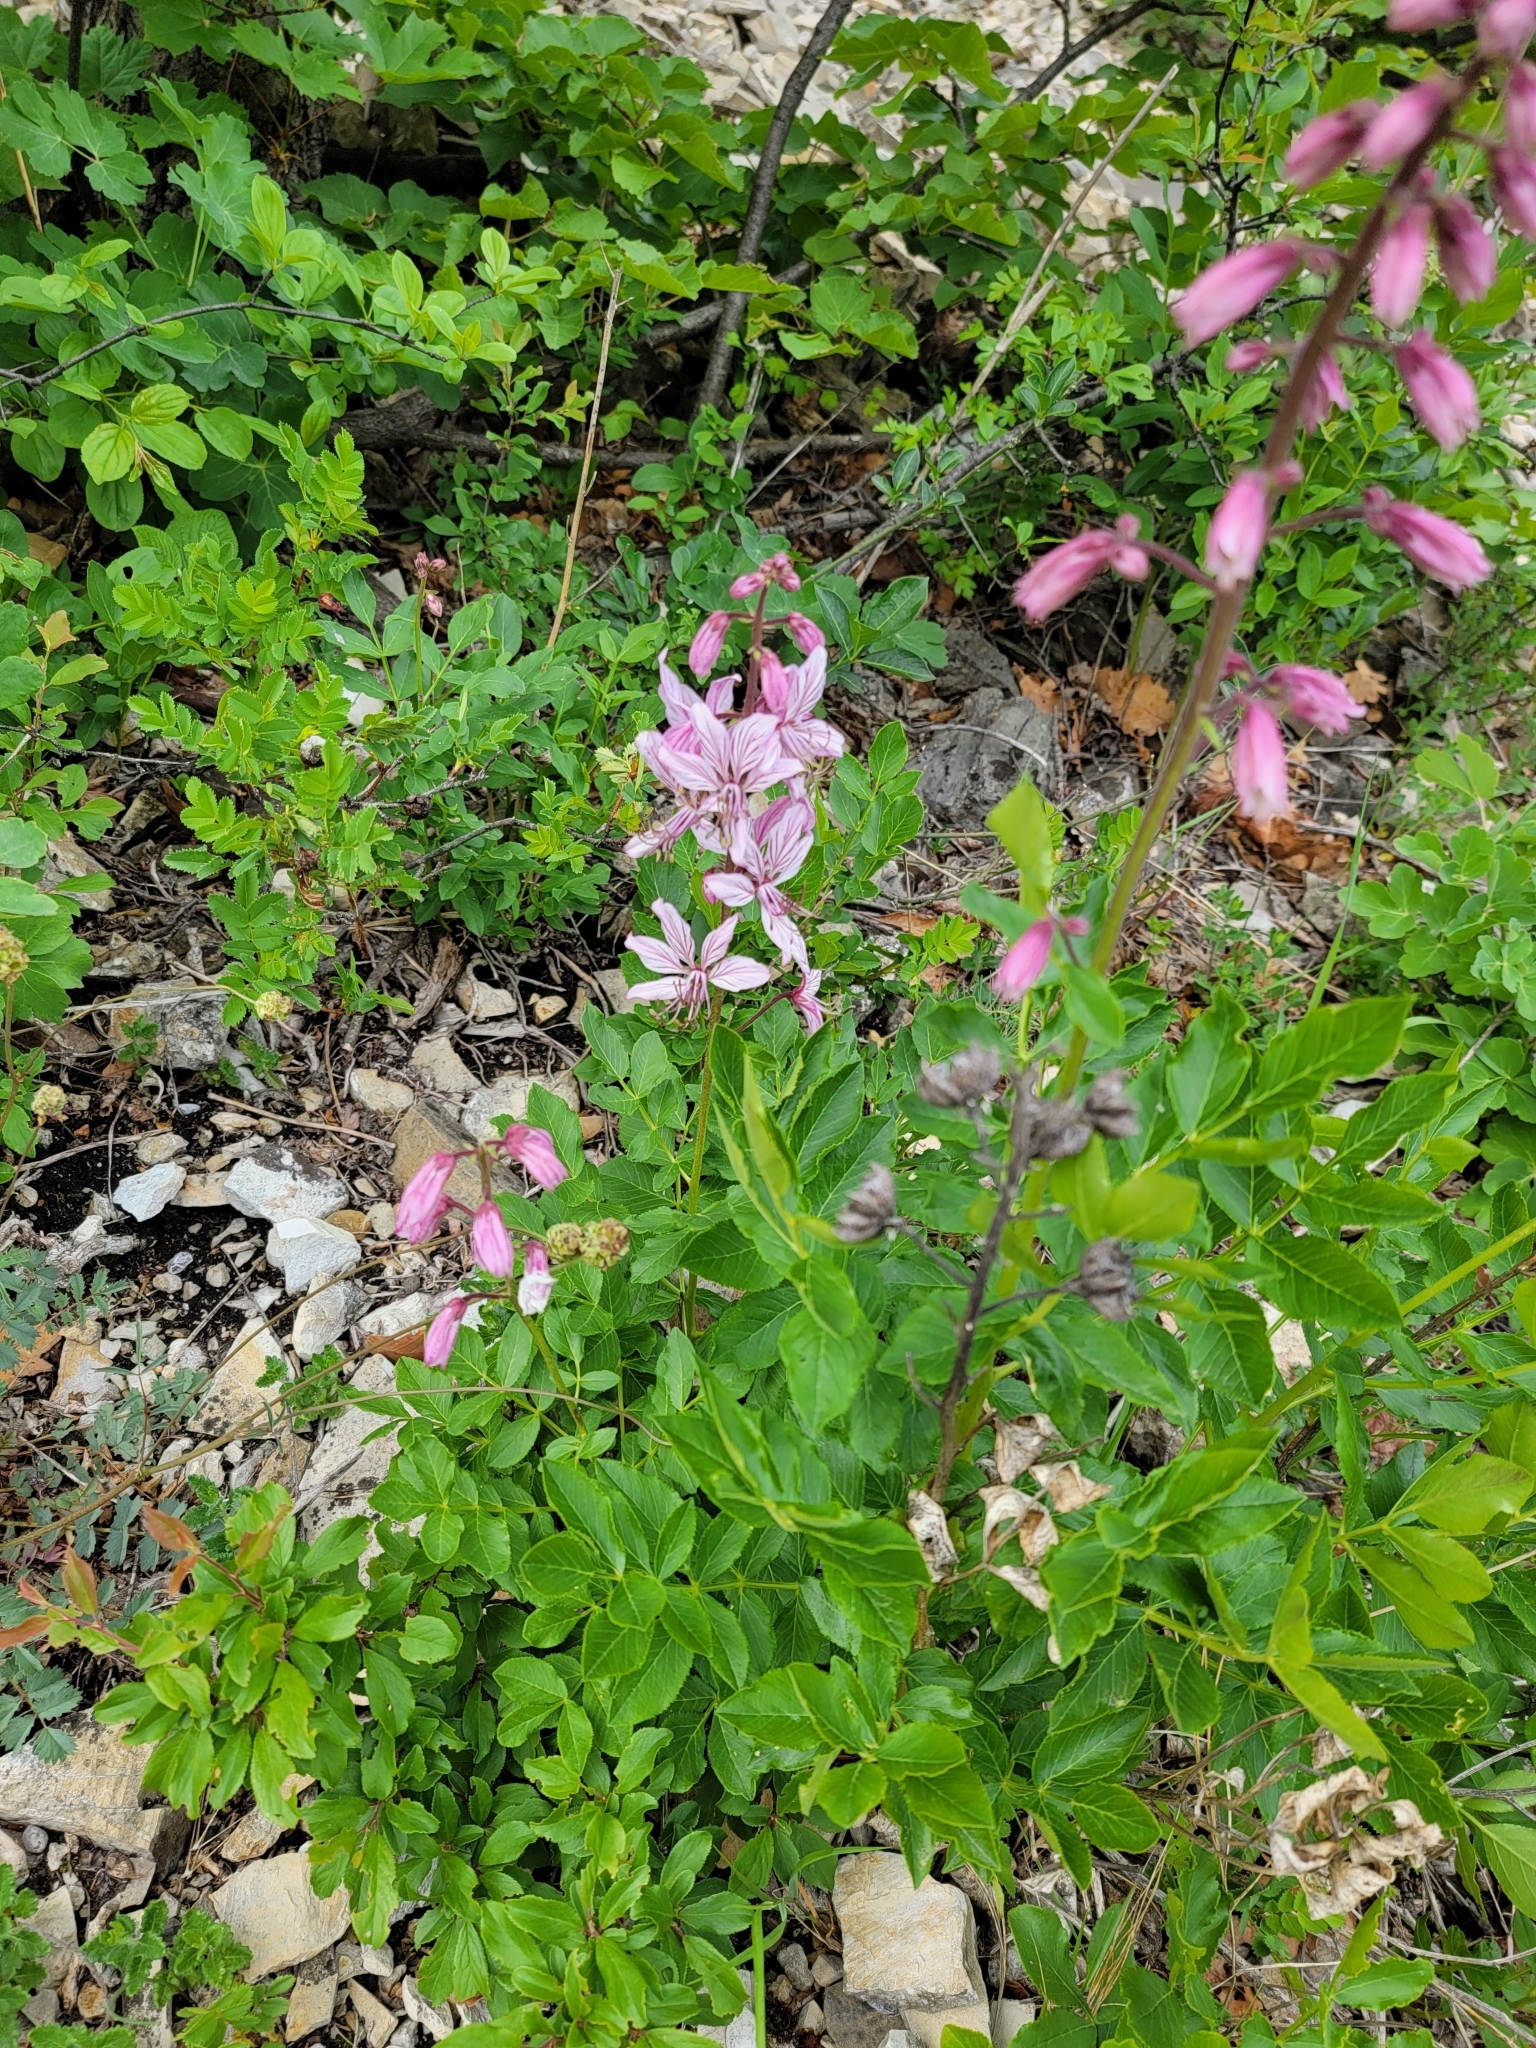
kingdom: Plantae
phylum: Tracheophyta
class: Magnoliopsida
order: Sapindales
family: Rutaceae
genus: Dictamnus
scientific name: Dictamnus albus
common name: Gasplant
